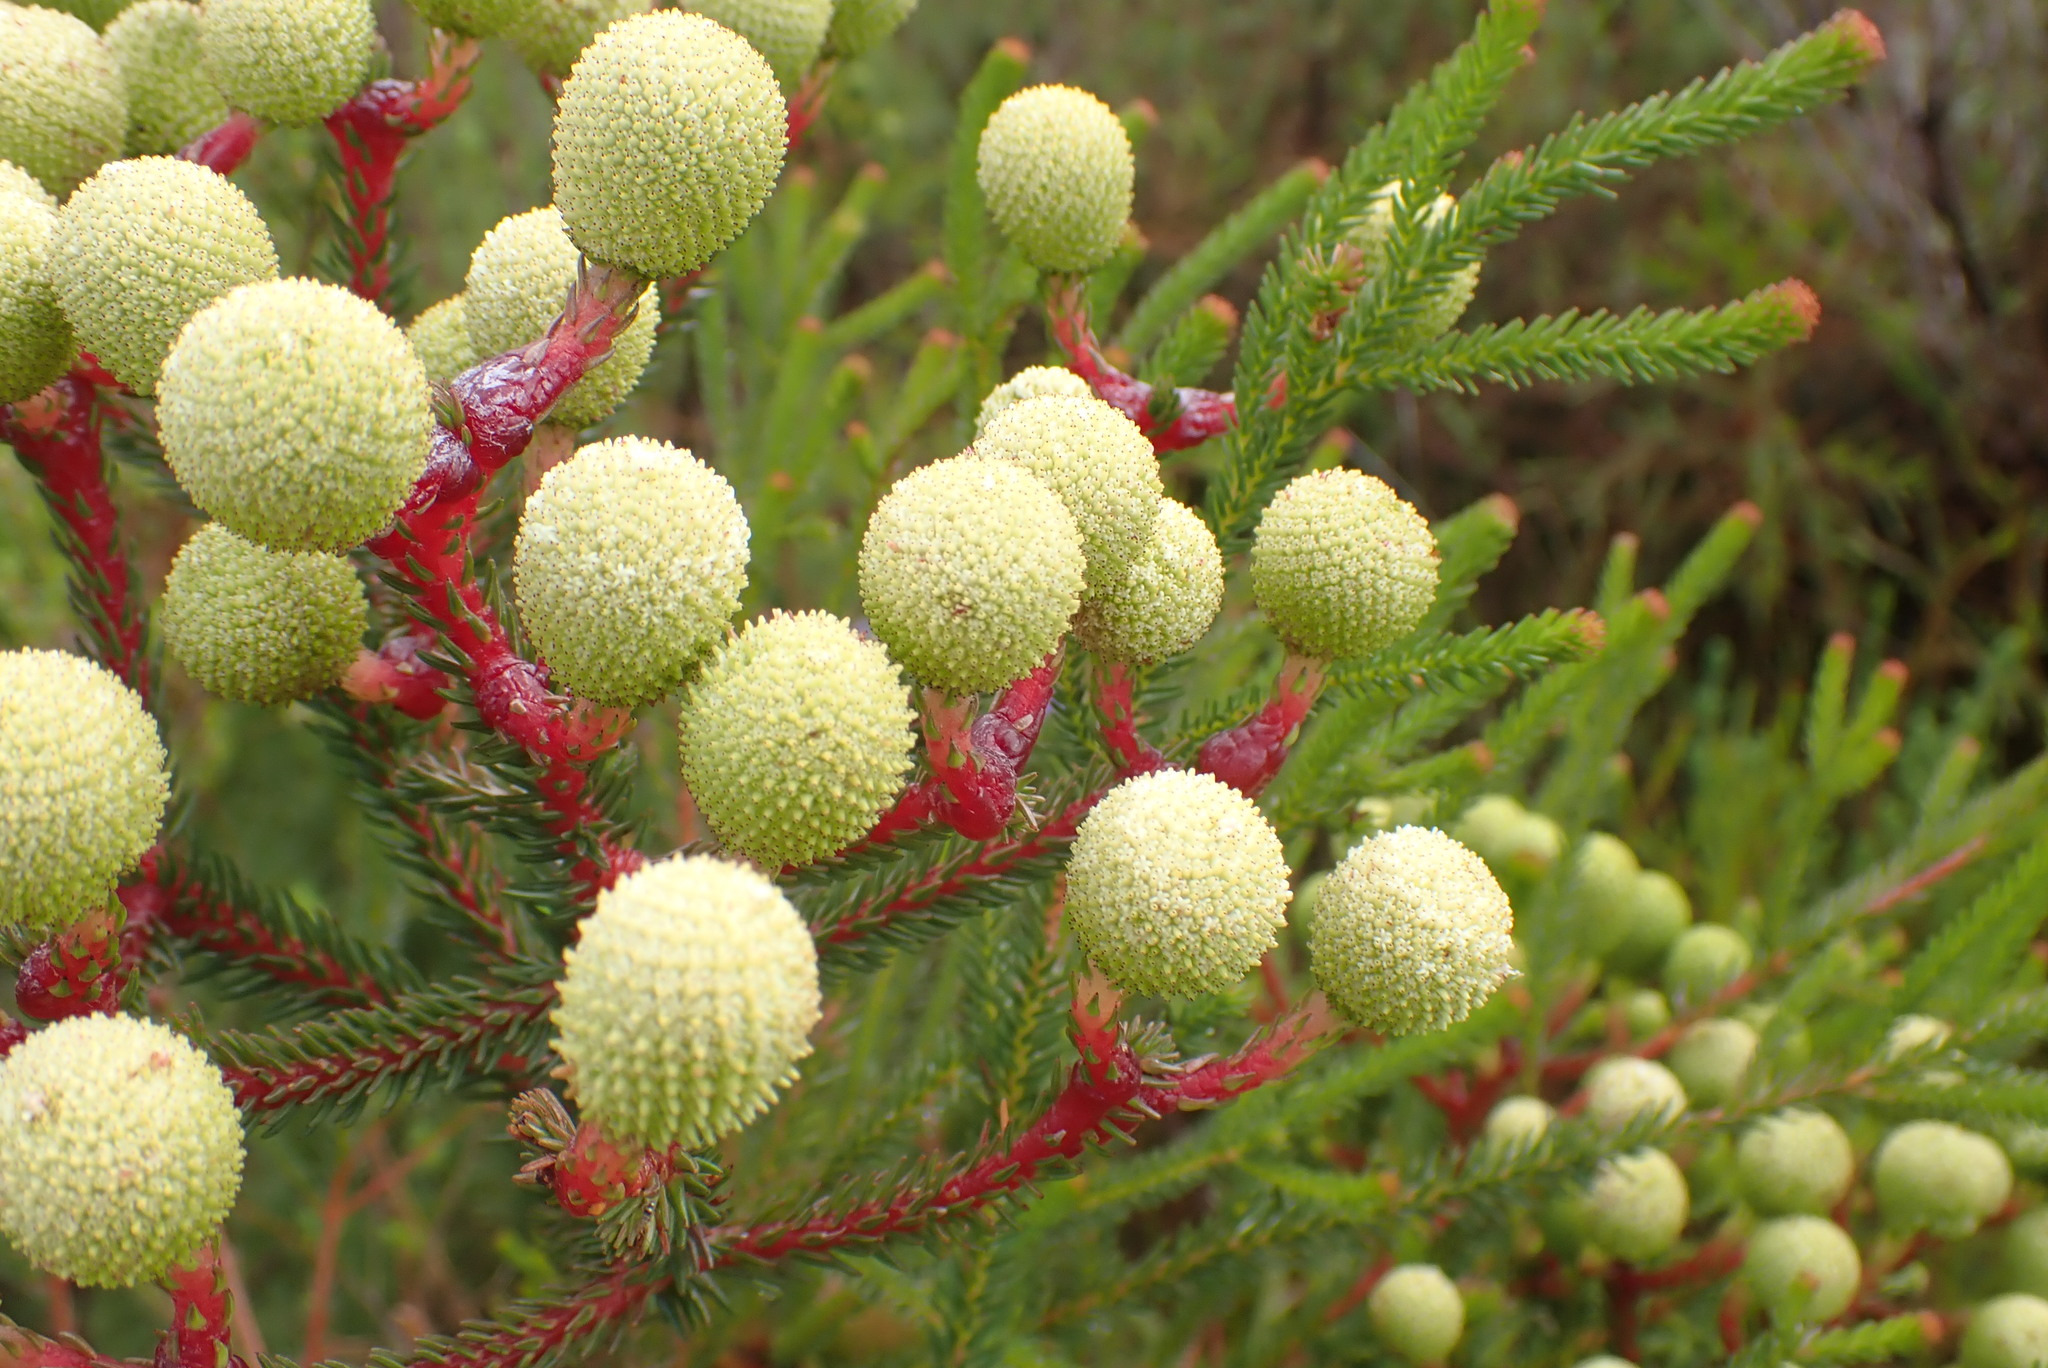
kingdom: Plantae
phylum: Tracheophyta
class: Magnoliopsida
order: Bruniales
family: Bruniaceae
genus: Berzelia
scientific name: Berzelia intermedia
